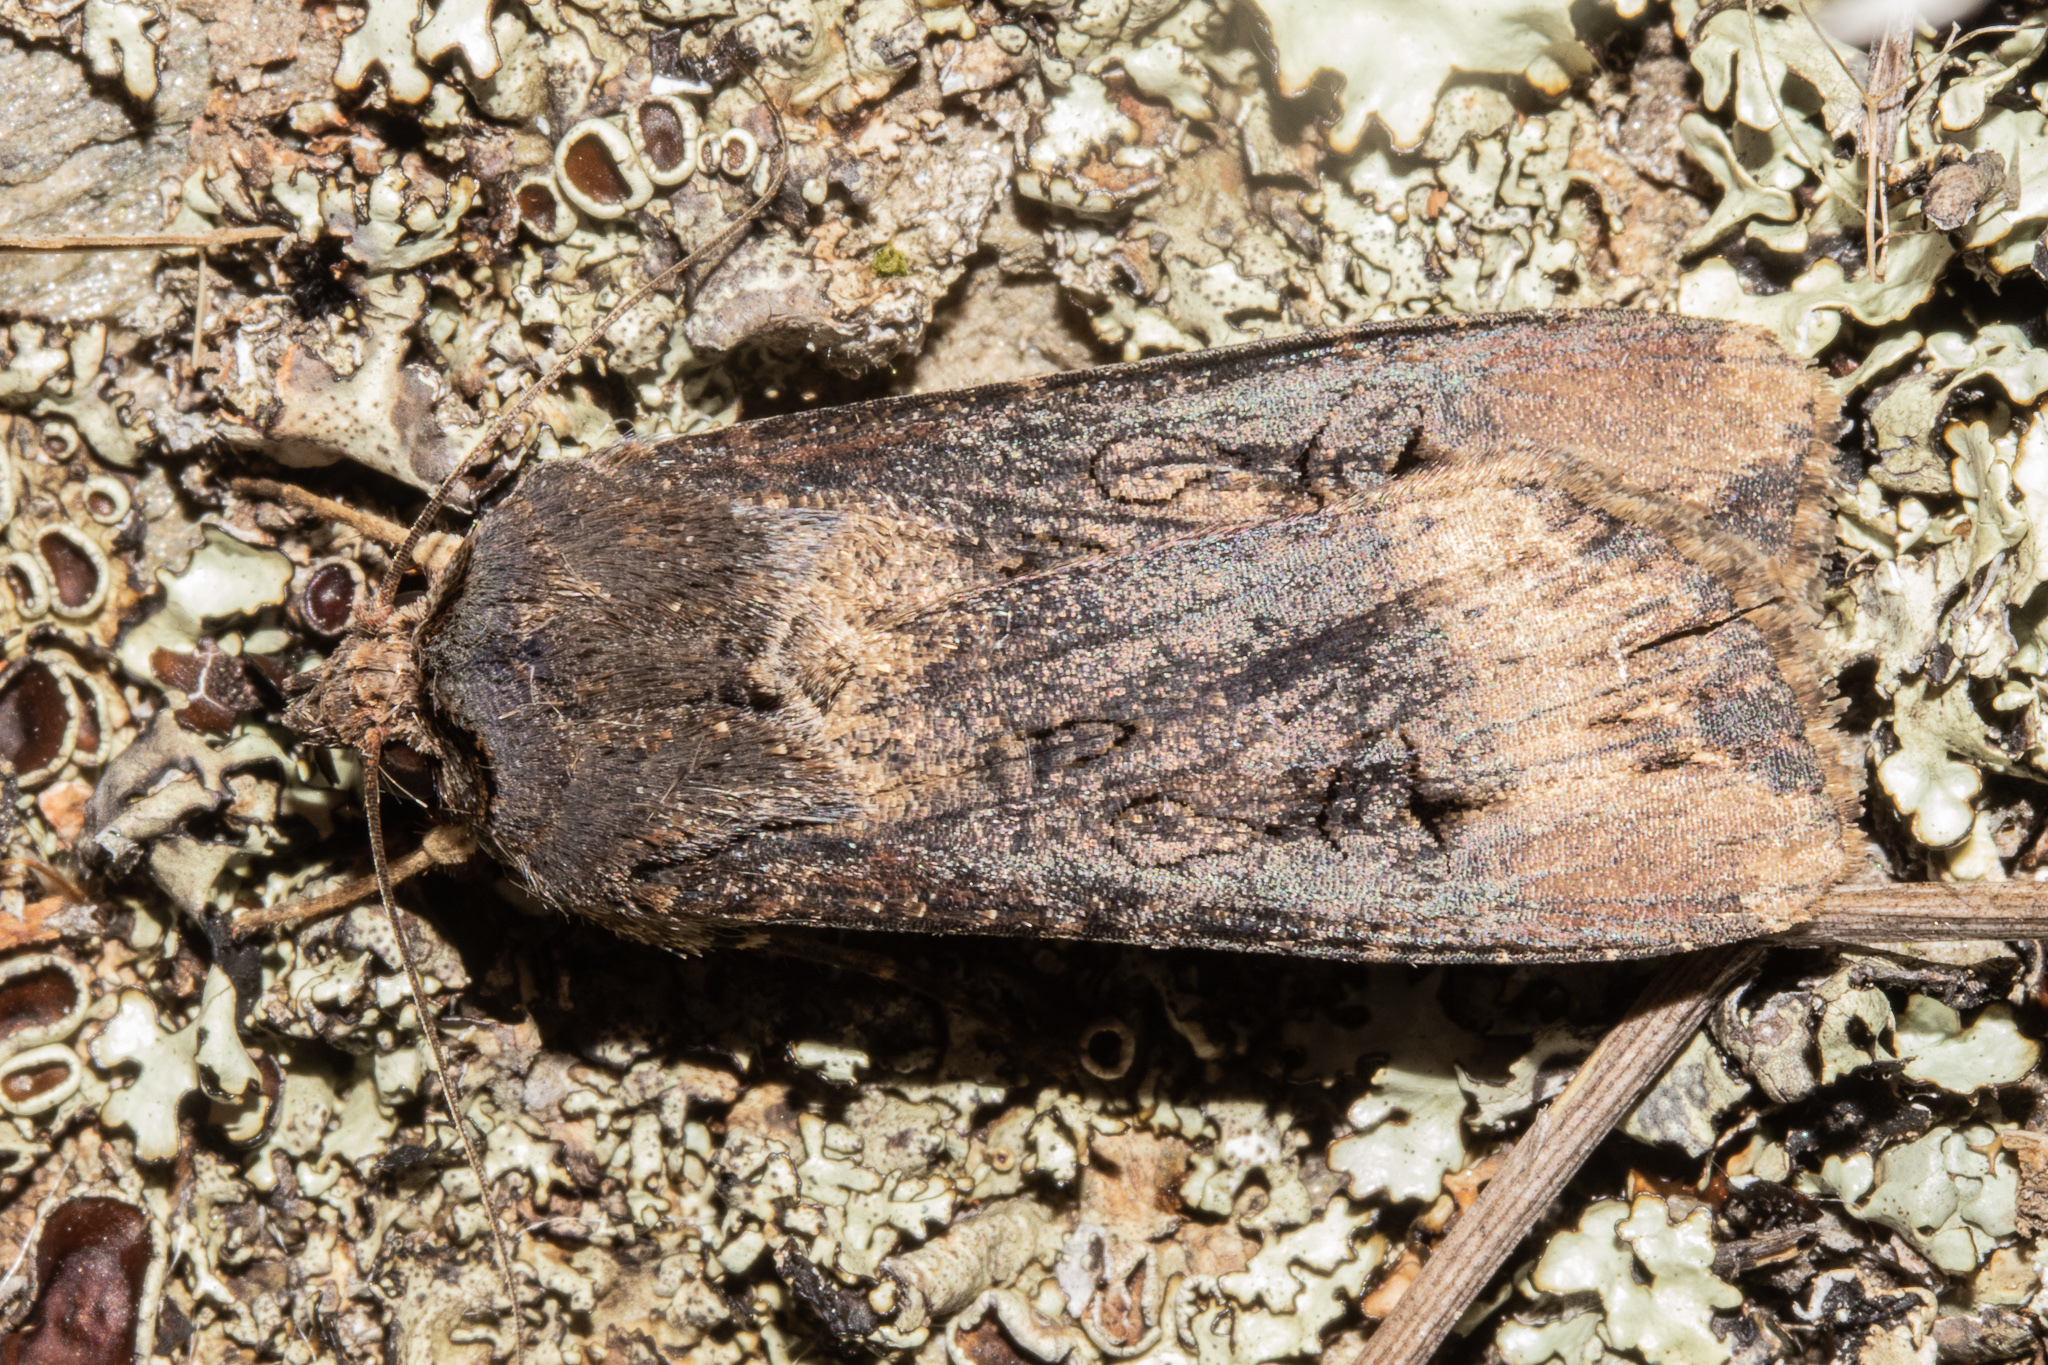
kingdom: Animalia
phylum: Arthropoda
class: Insecta
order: Lepidoptera
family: Noctuidae
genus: Agrotis
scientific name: Agrotis ipsilon
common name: Dark sword-grass
